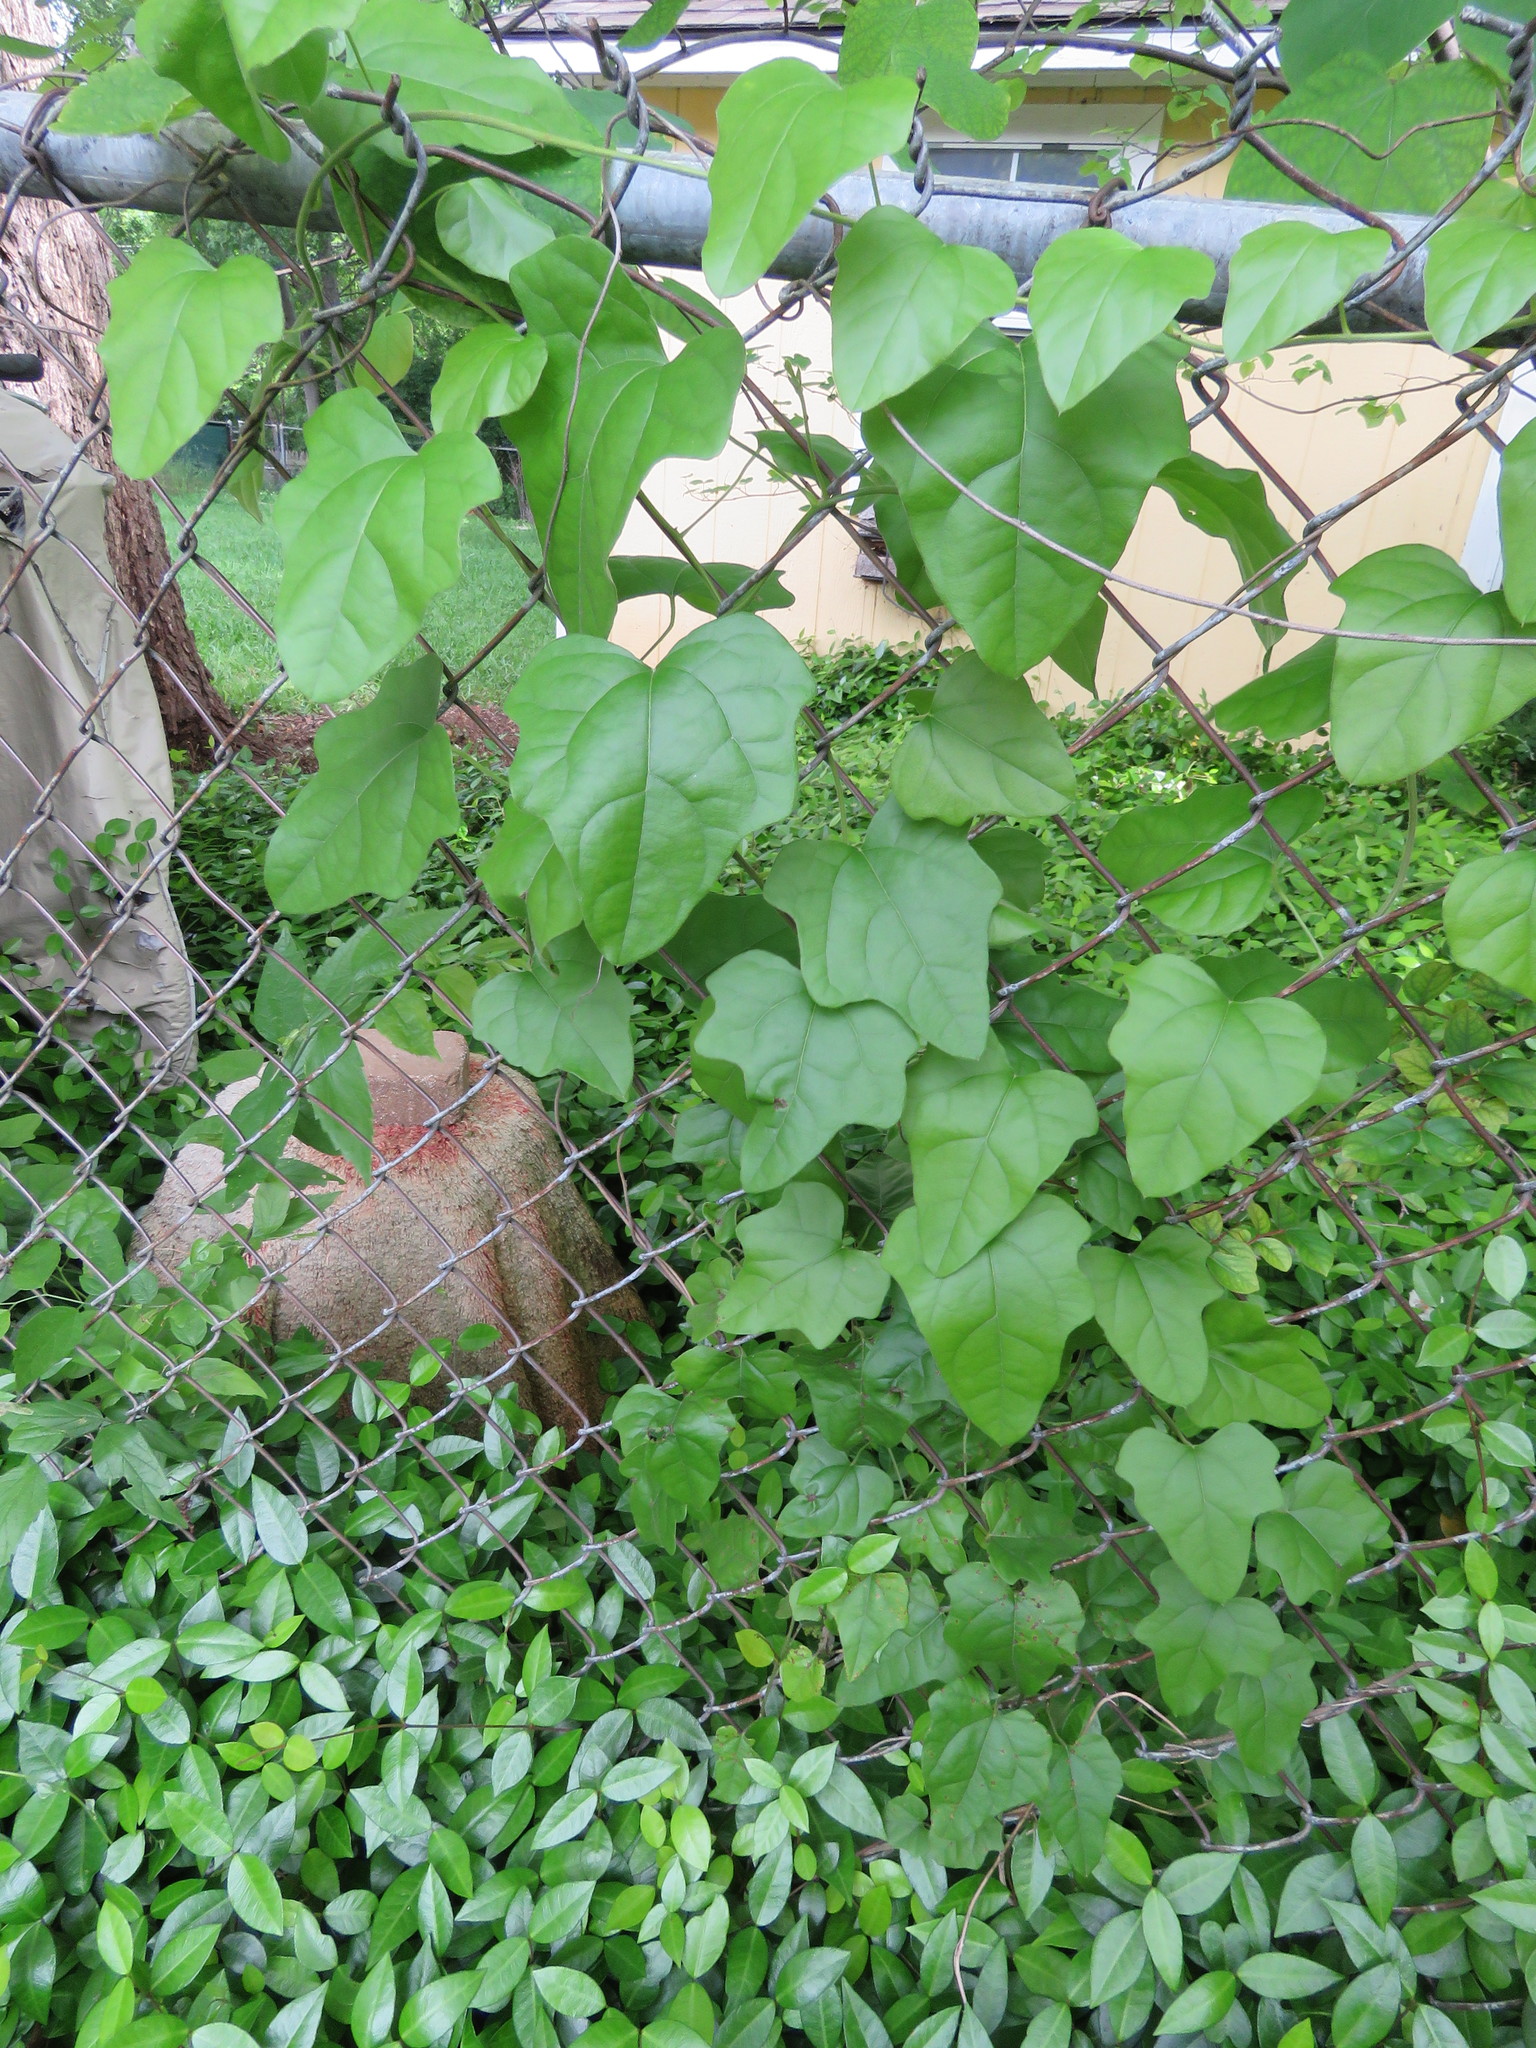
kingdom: Plantae
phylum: Tracheophyta
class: Magnoliopsida
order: Ranunculales
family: Menispermaceae
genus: Cocculus
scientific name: Cocculus carolinus
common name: Carolina moonseed
